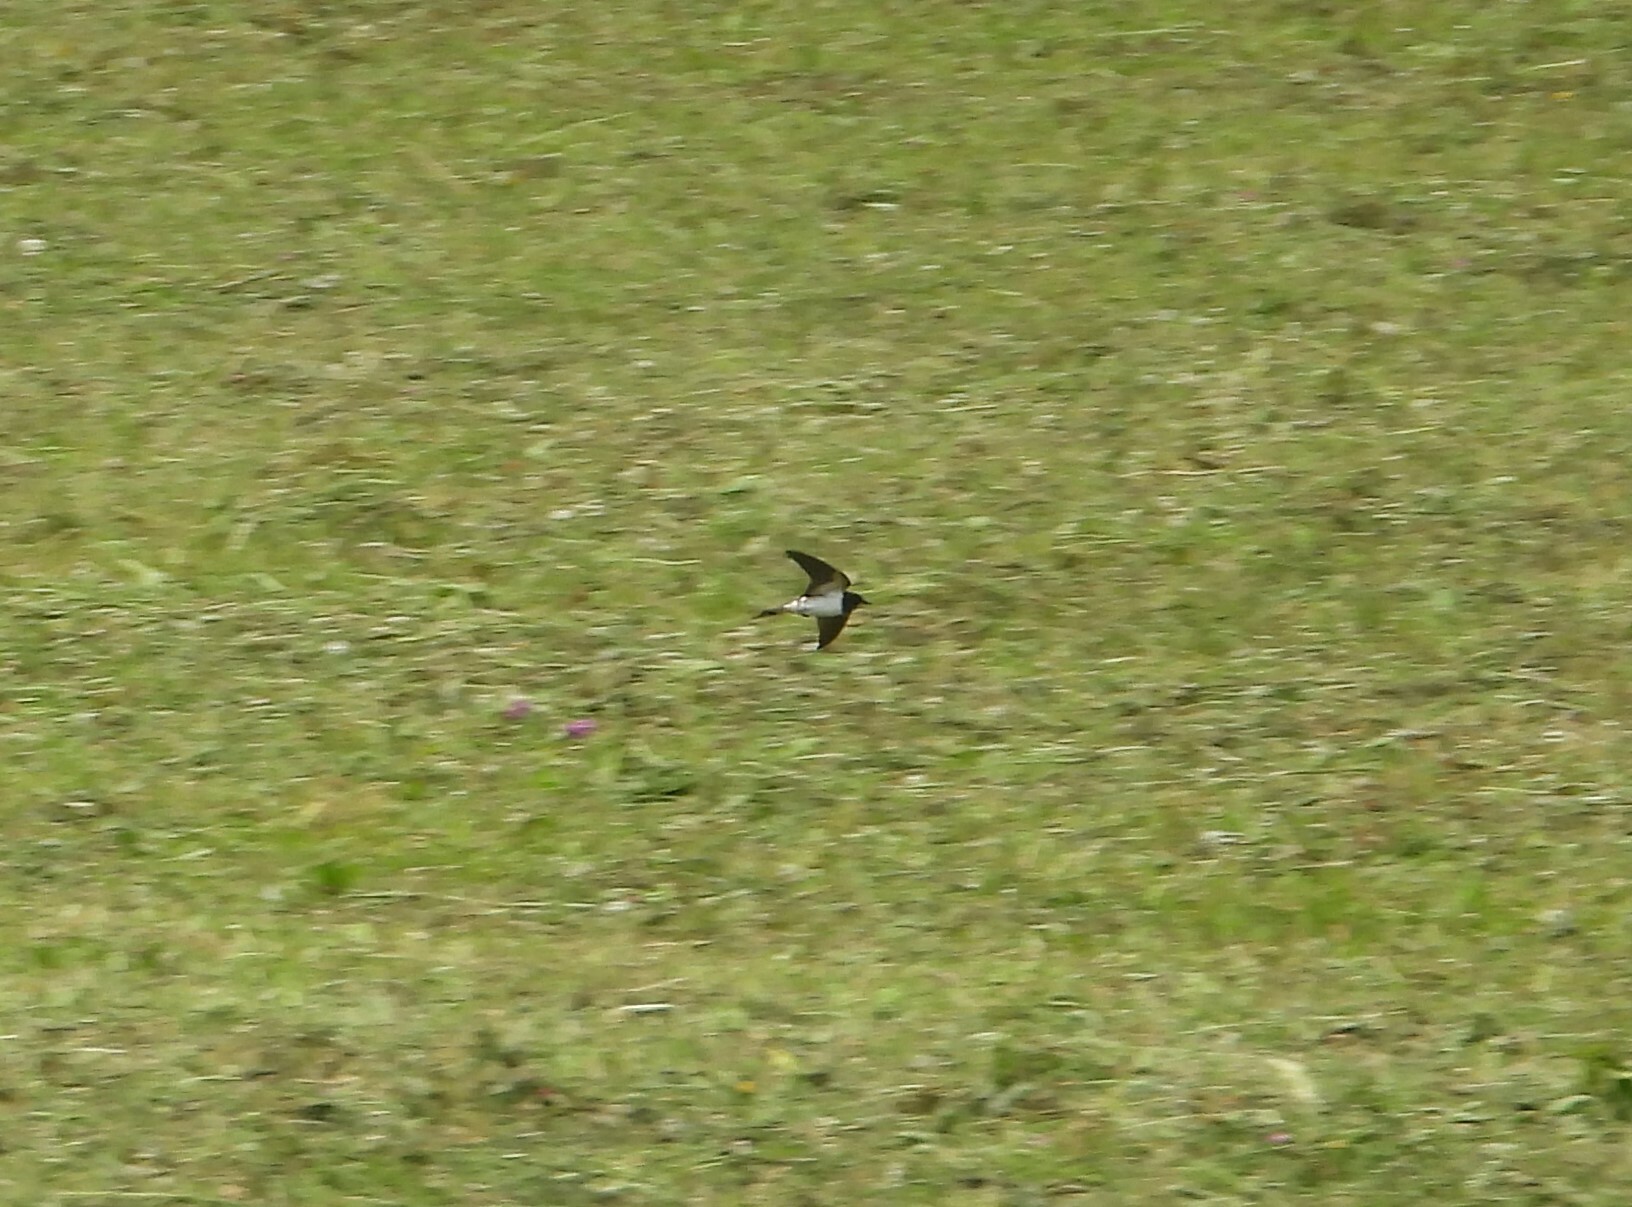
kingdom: Animalia
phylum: Chordata
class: Aves
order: Passeriformes
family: Hirundinidae
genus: Hirundo
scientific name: Hirundo rustica
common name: Barn swallow
